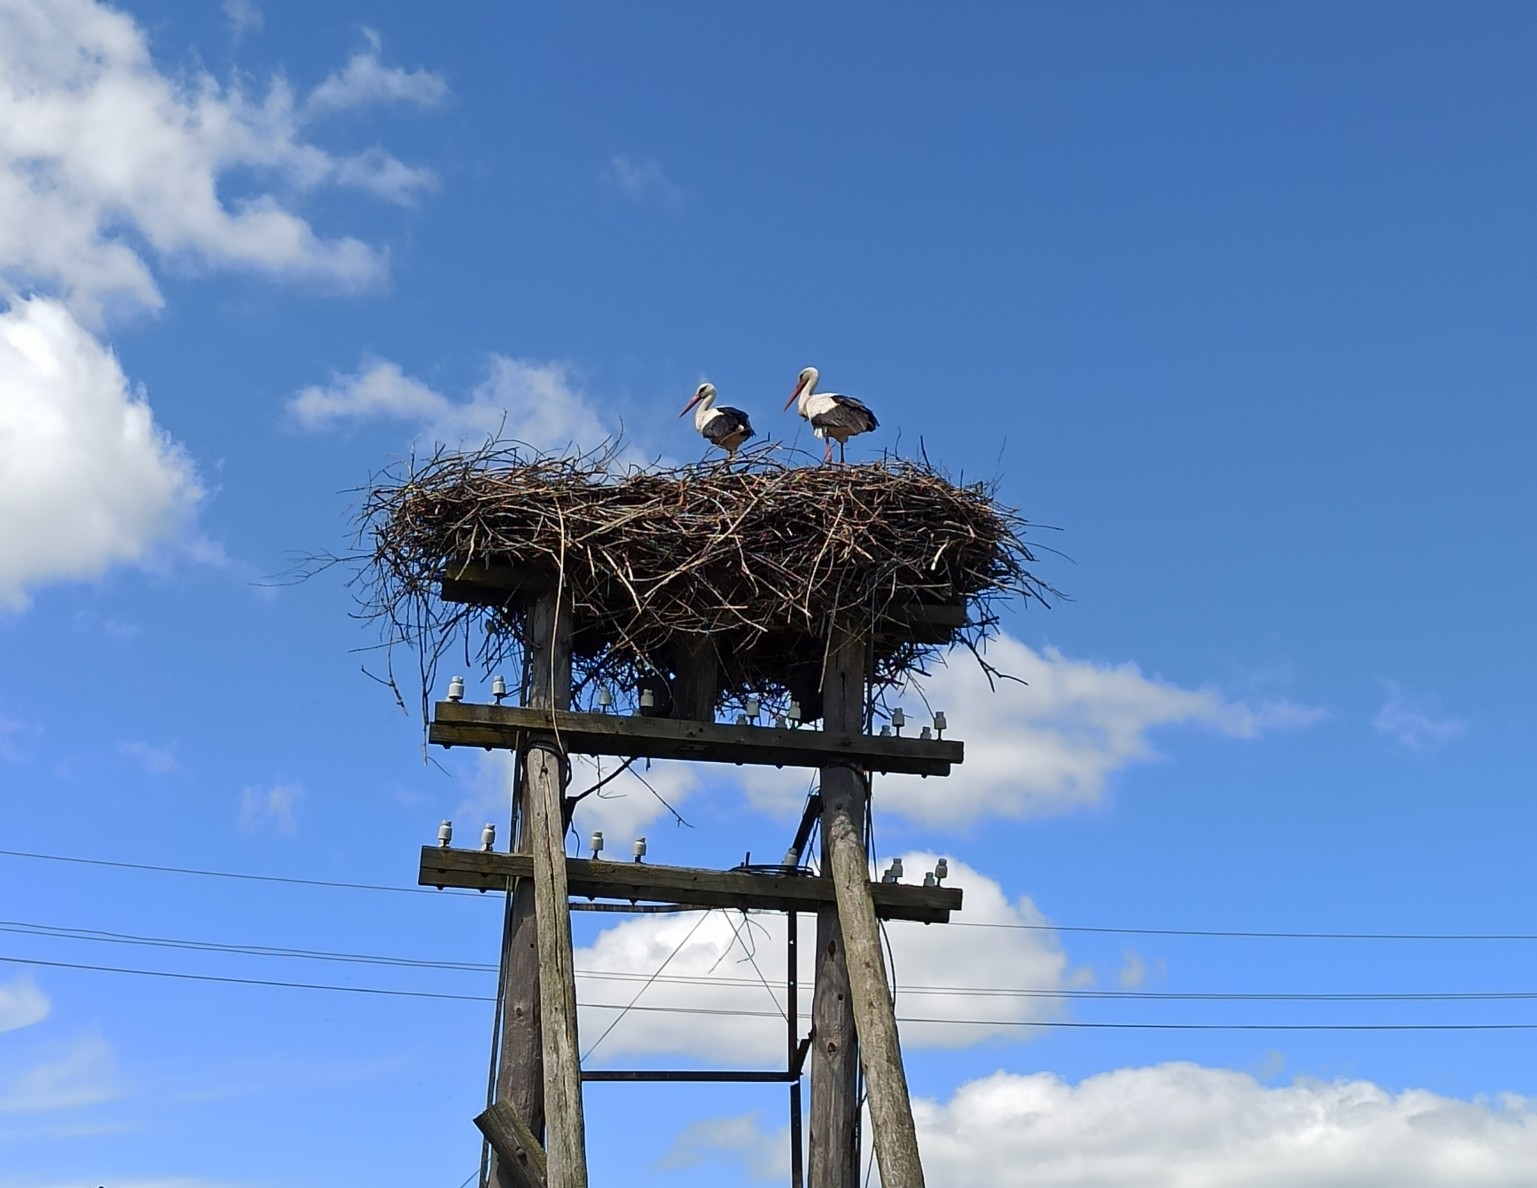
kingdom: Animalia
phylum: Chordata
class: Aves
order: Ciconiiformes
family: Ciconiidae
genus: Ciconia
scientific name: Ciconia ciconia
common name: White stork
